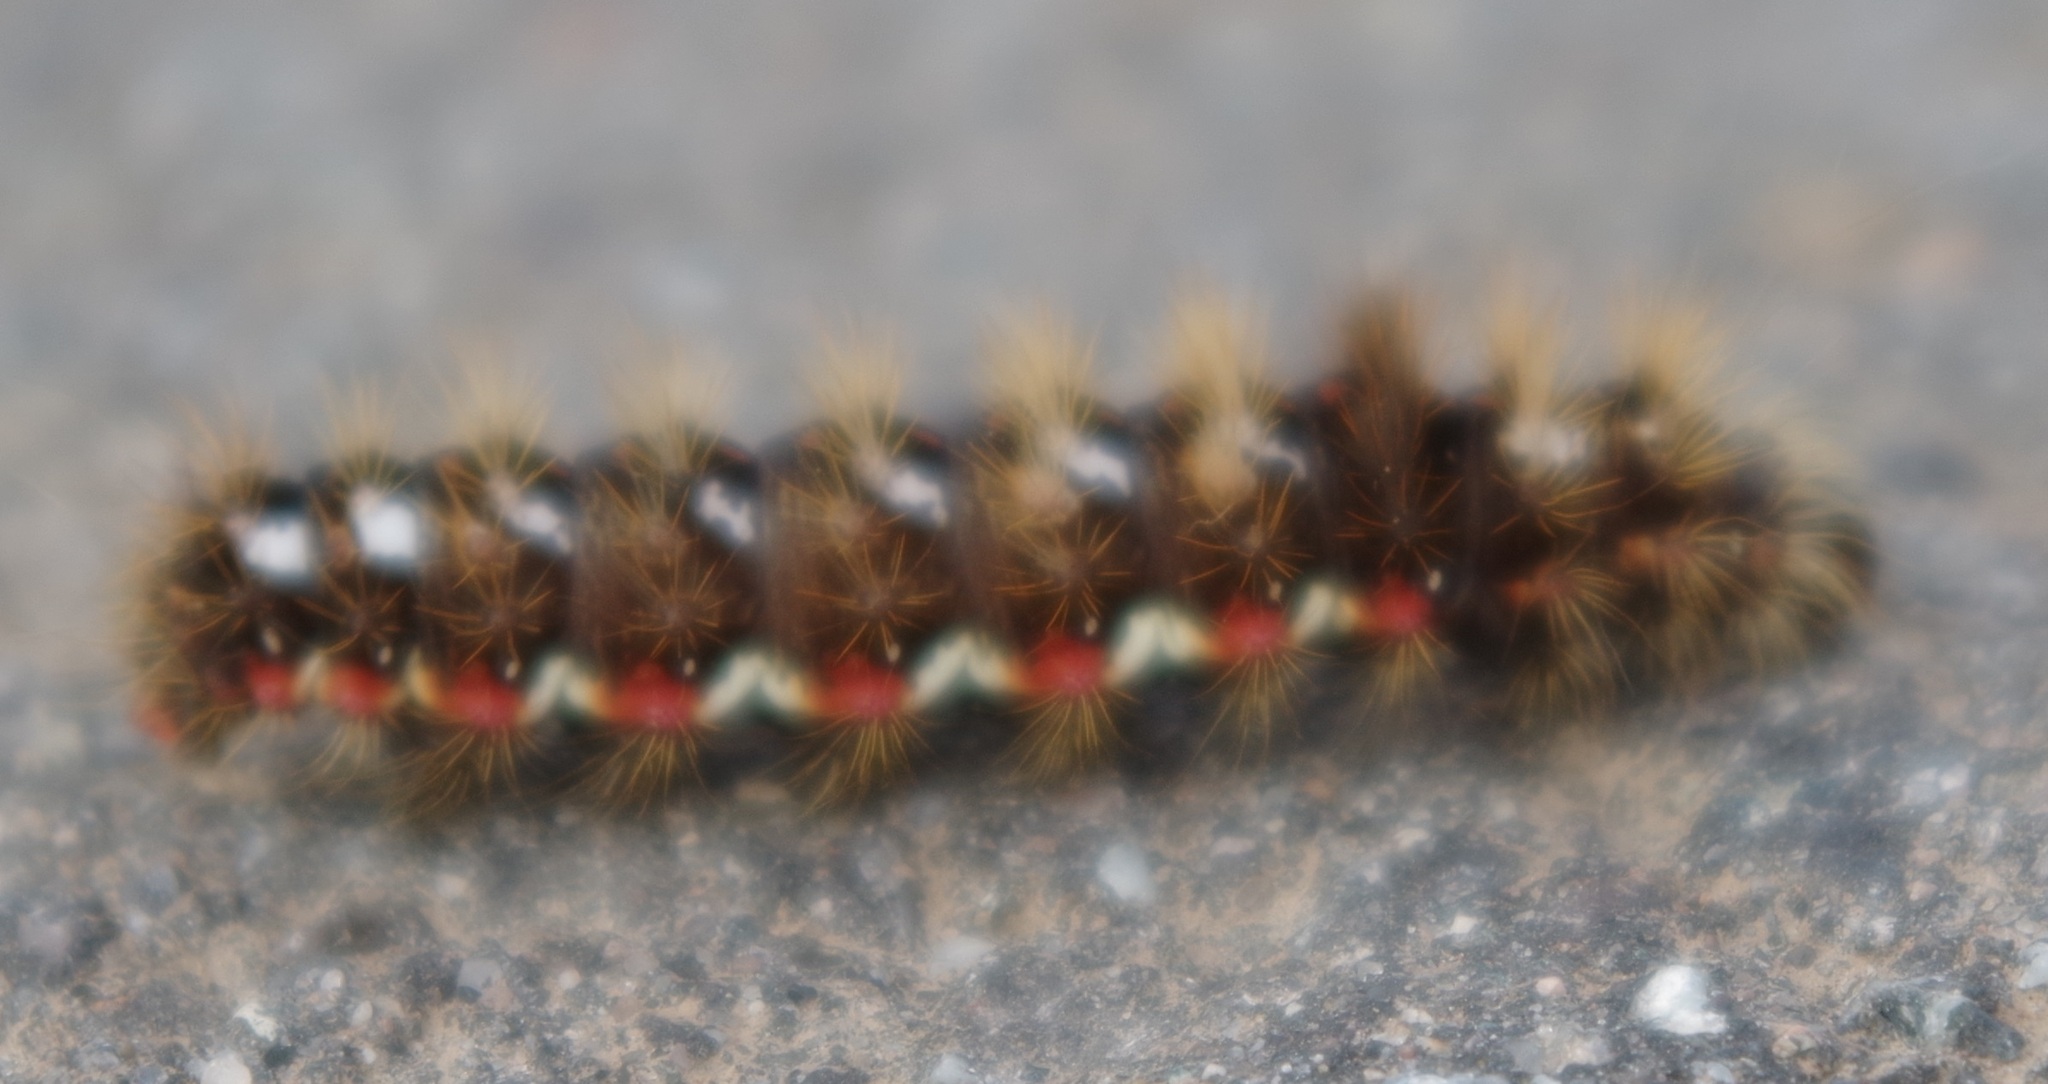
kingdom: Animalia
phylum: Arthropoda
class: Insecta
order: Lepidoptera
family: Noctuidae
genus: Acronicta
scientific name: Acronicta rumicis
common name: Knot grass
